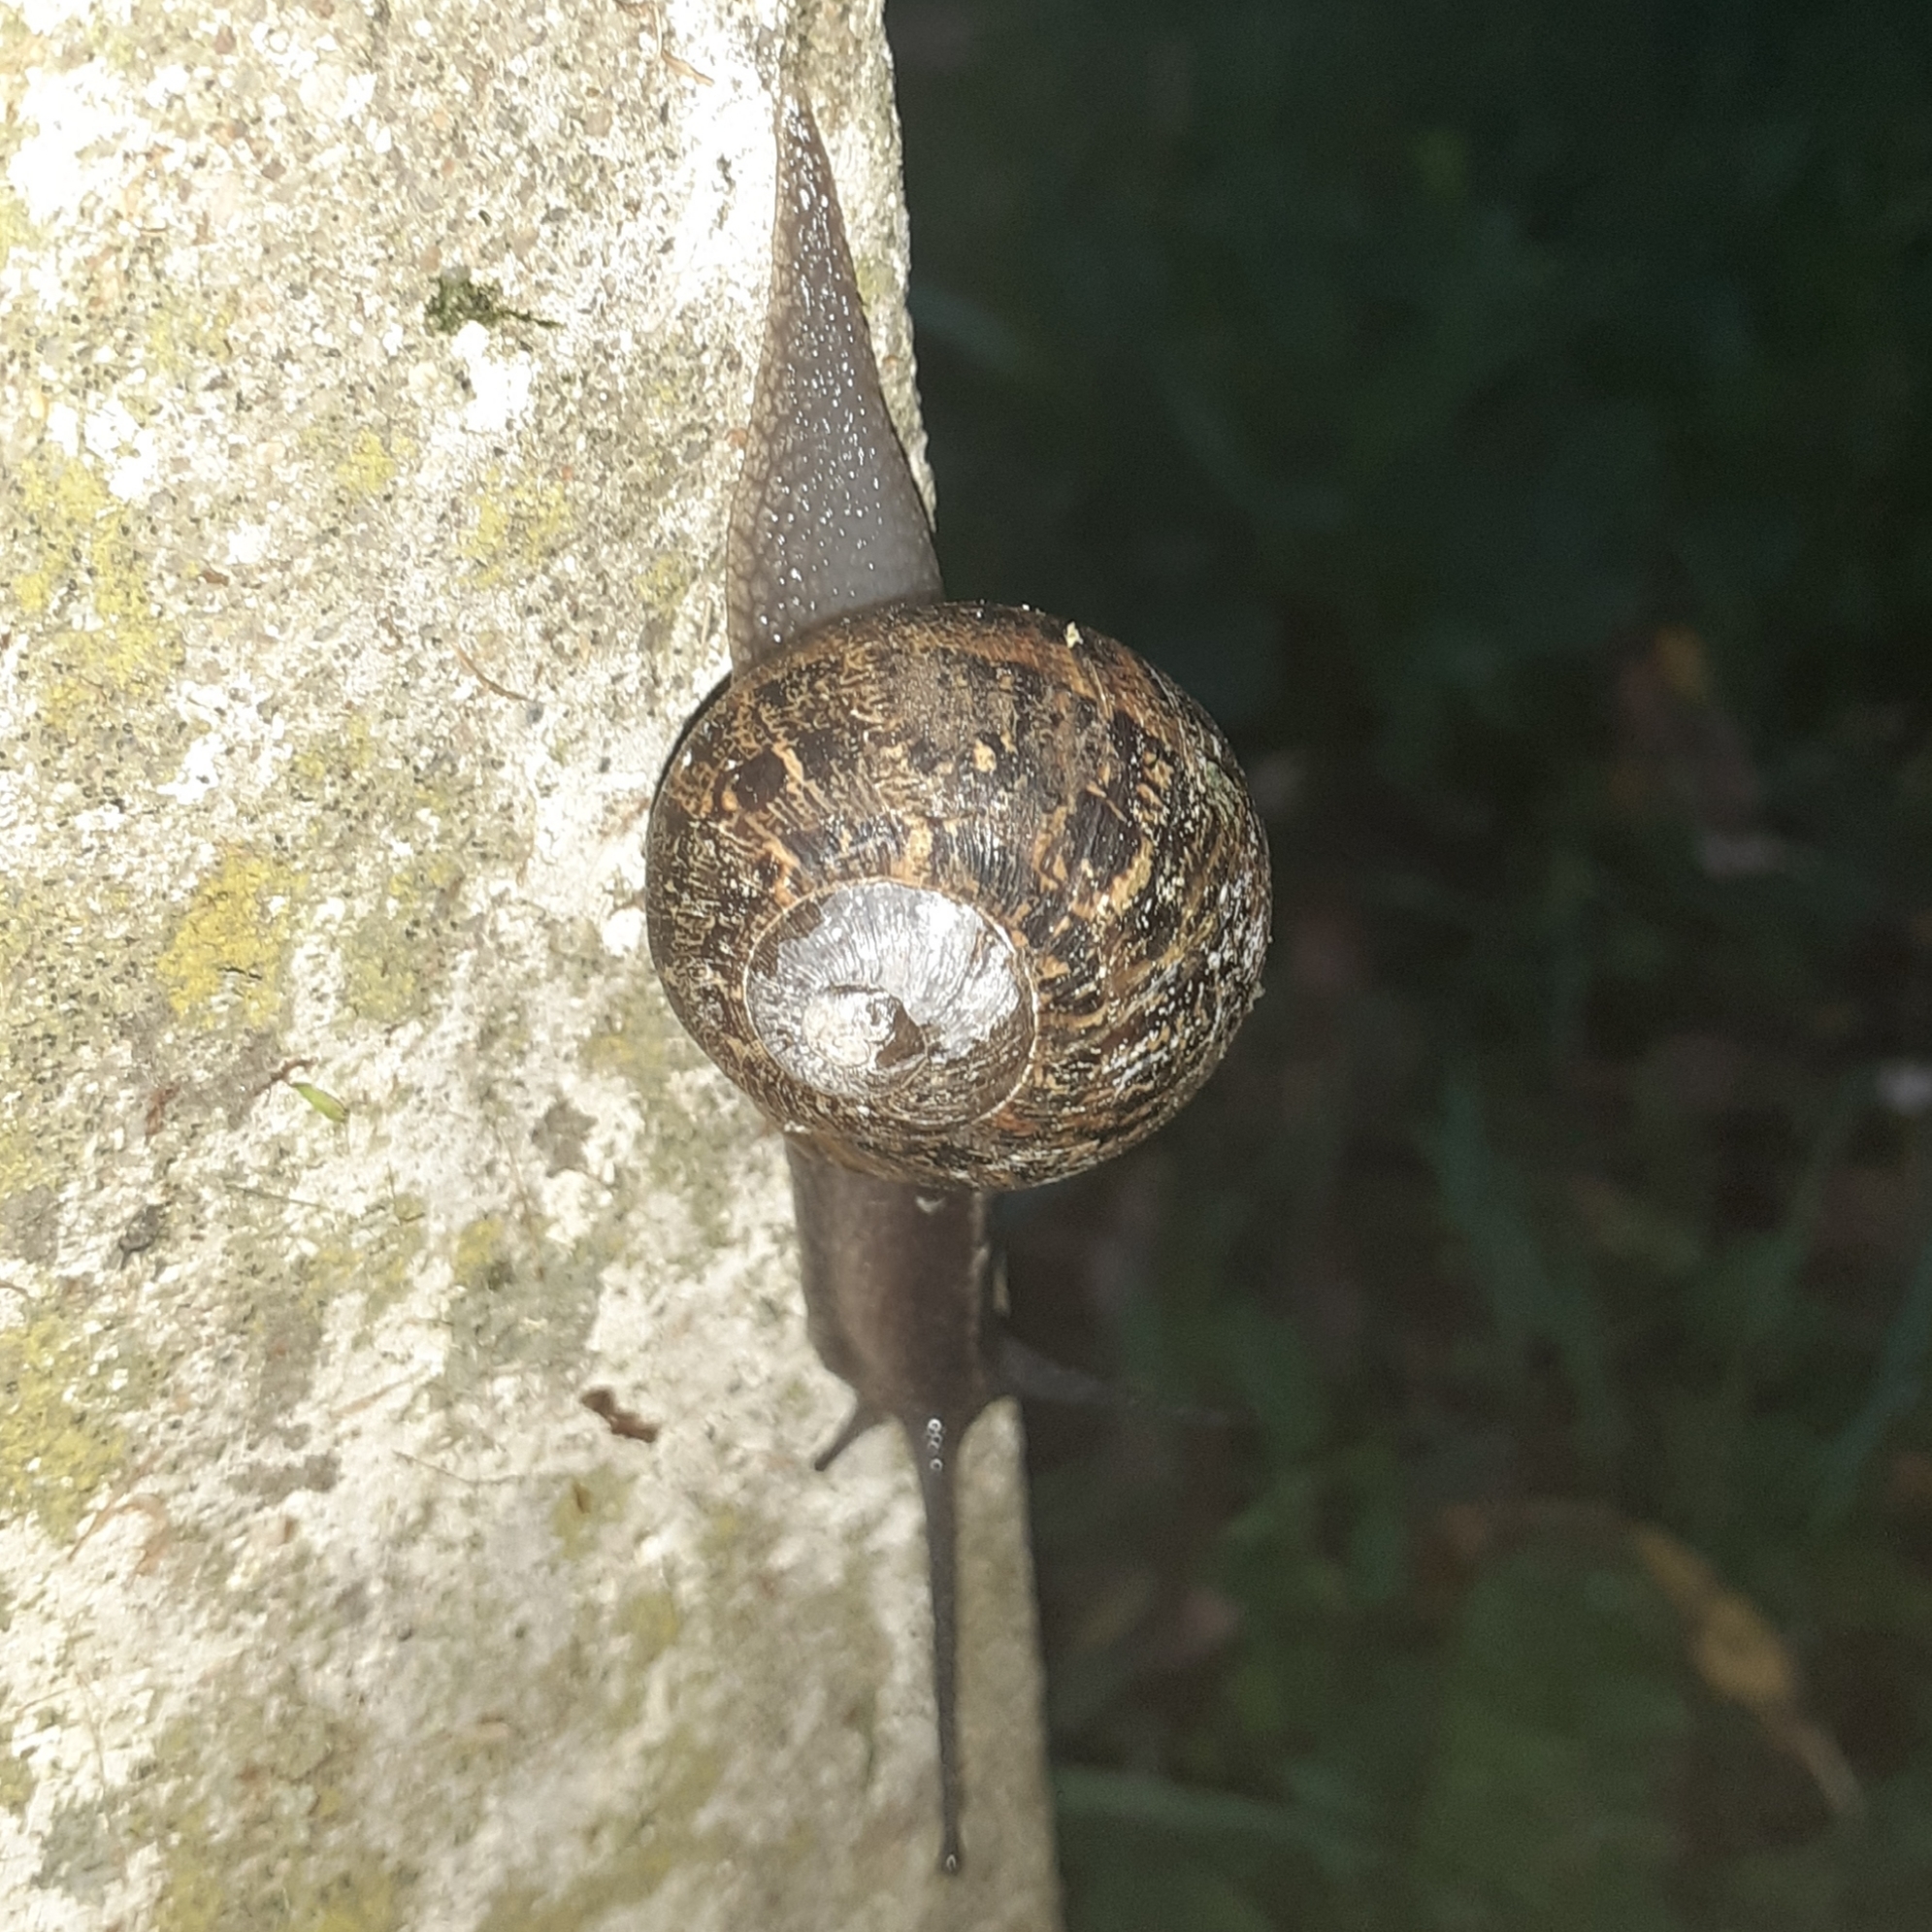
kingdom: Animalia
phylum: Mollusca
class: Gastropoda
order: Stylommatophora
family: Helicidae
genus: Cornu
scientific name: Cornu aspersum
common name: Brown garden snail
